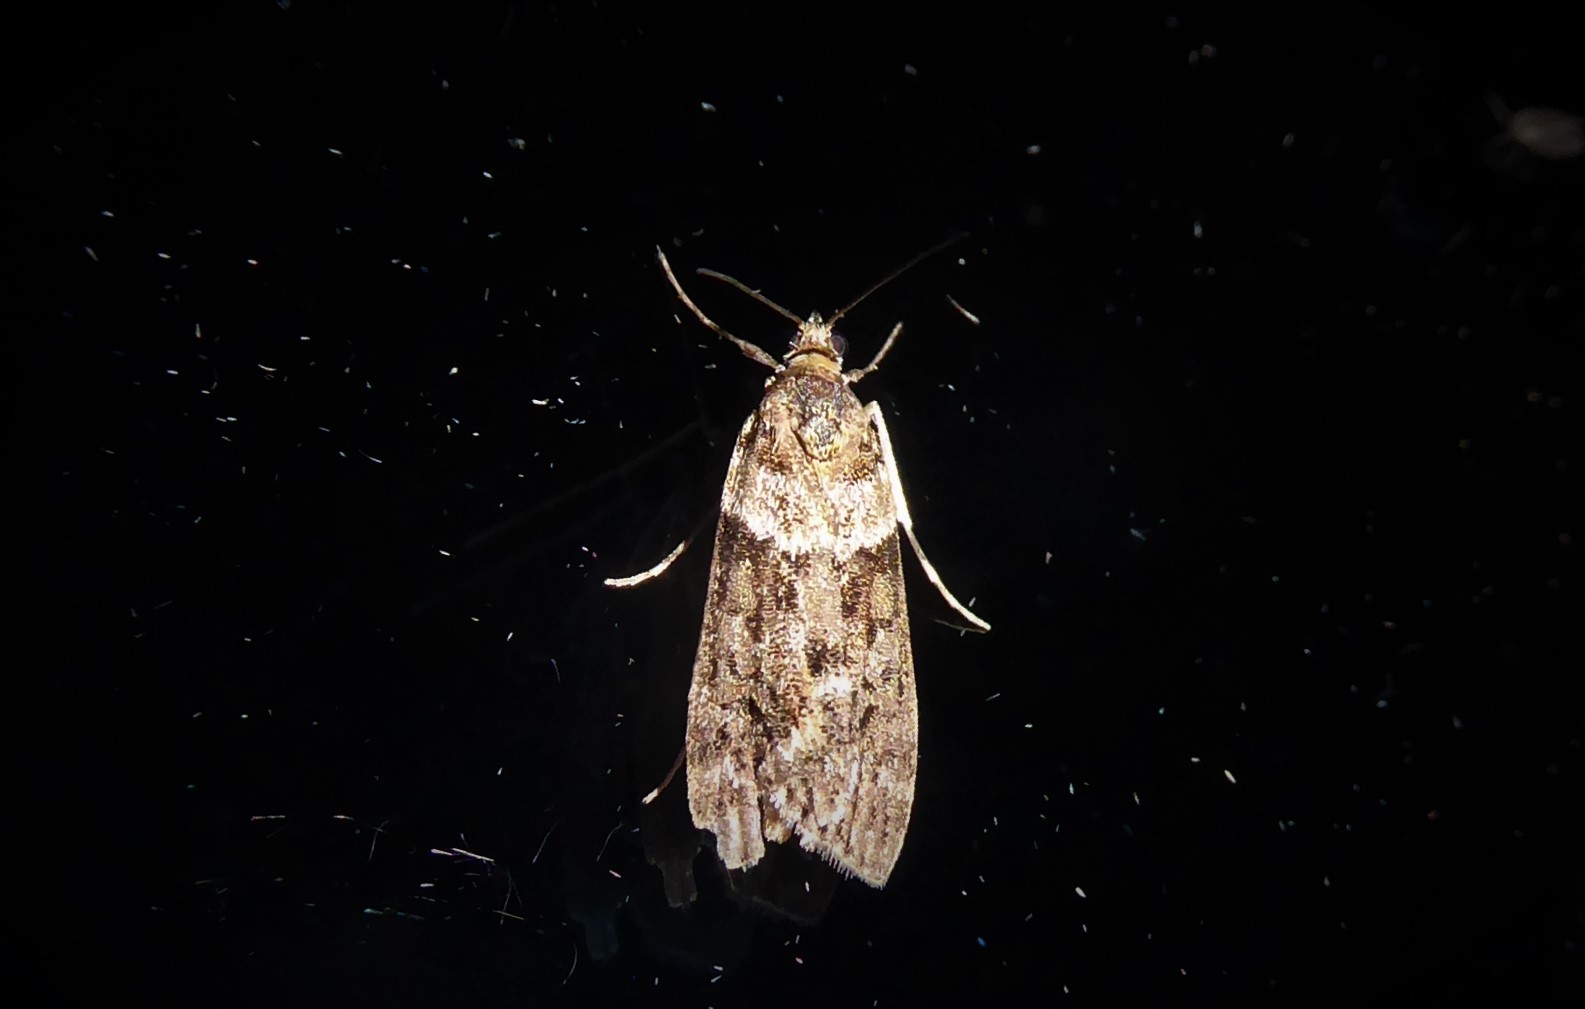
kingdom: Animalia
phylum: Arthropoda
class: Insecta
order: Lepidoptera
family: Crambidae
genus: Eudonia
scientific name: Eudonia submarginalis
